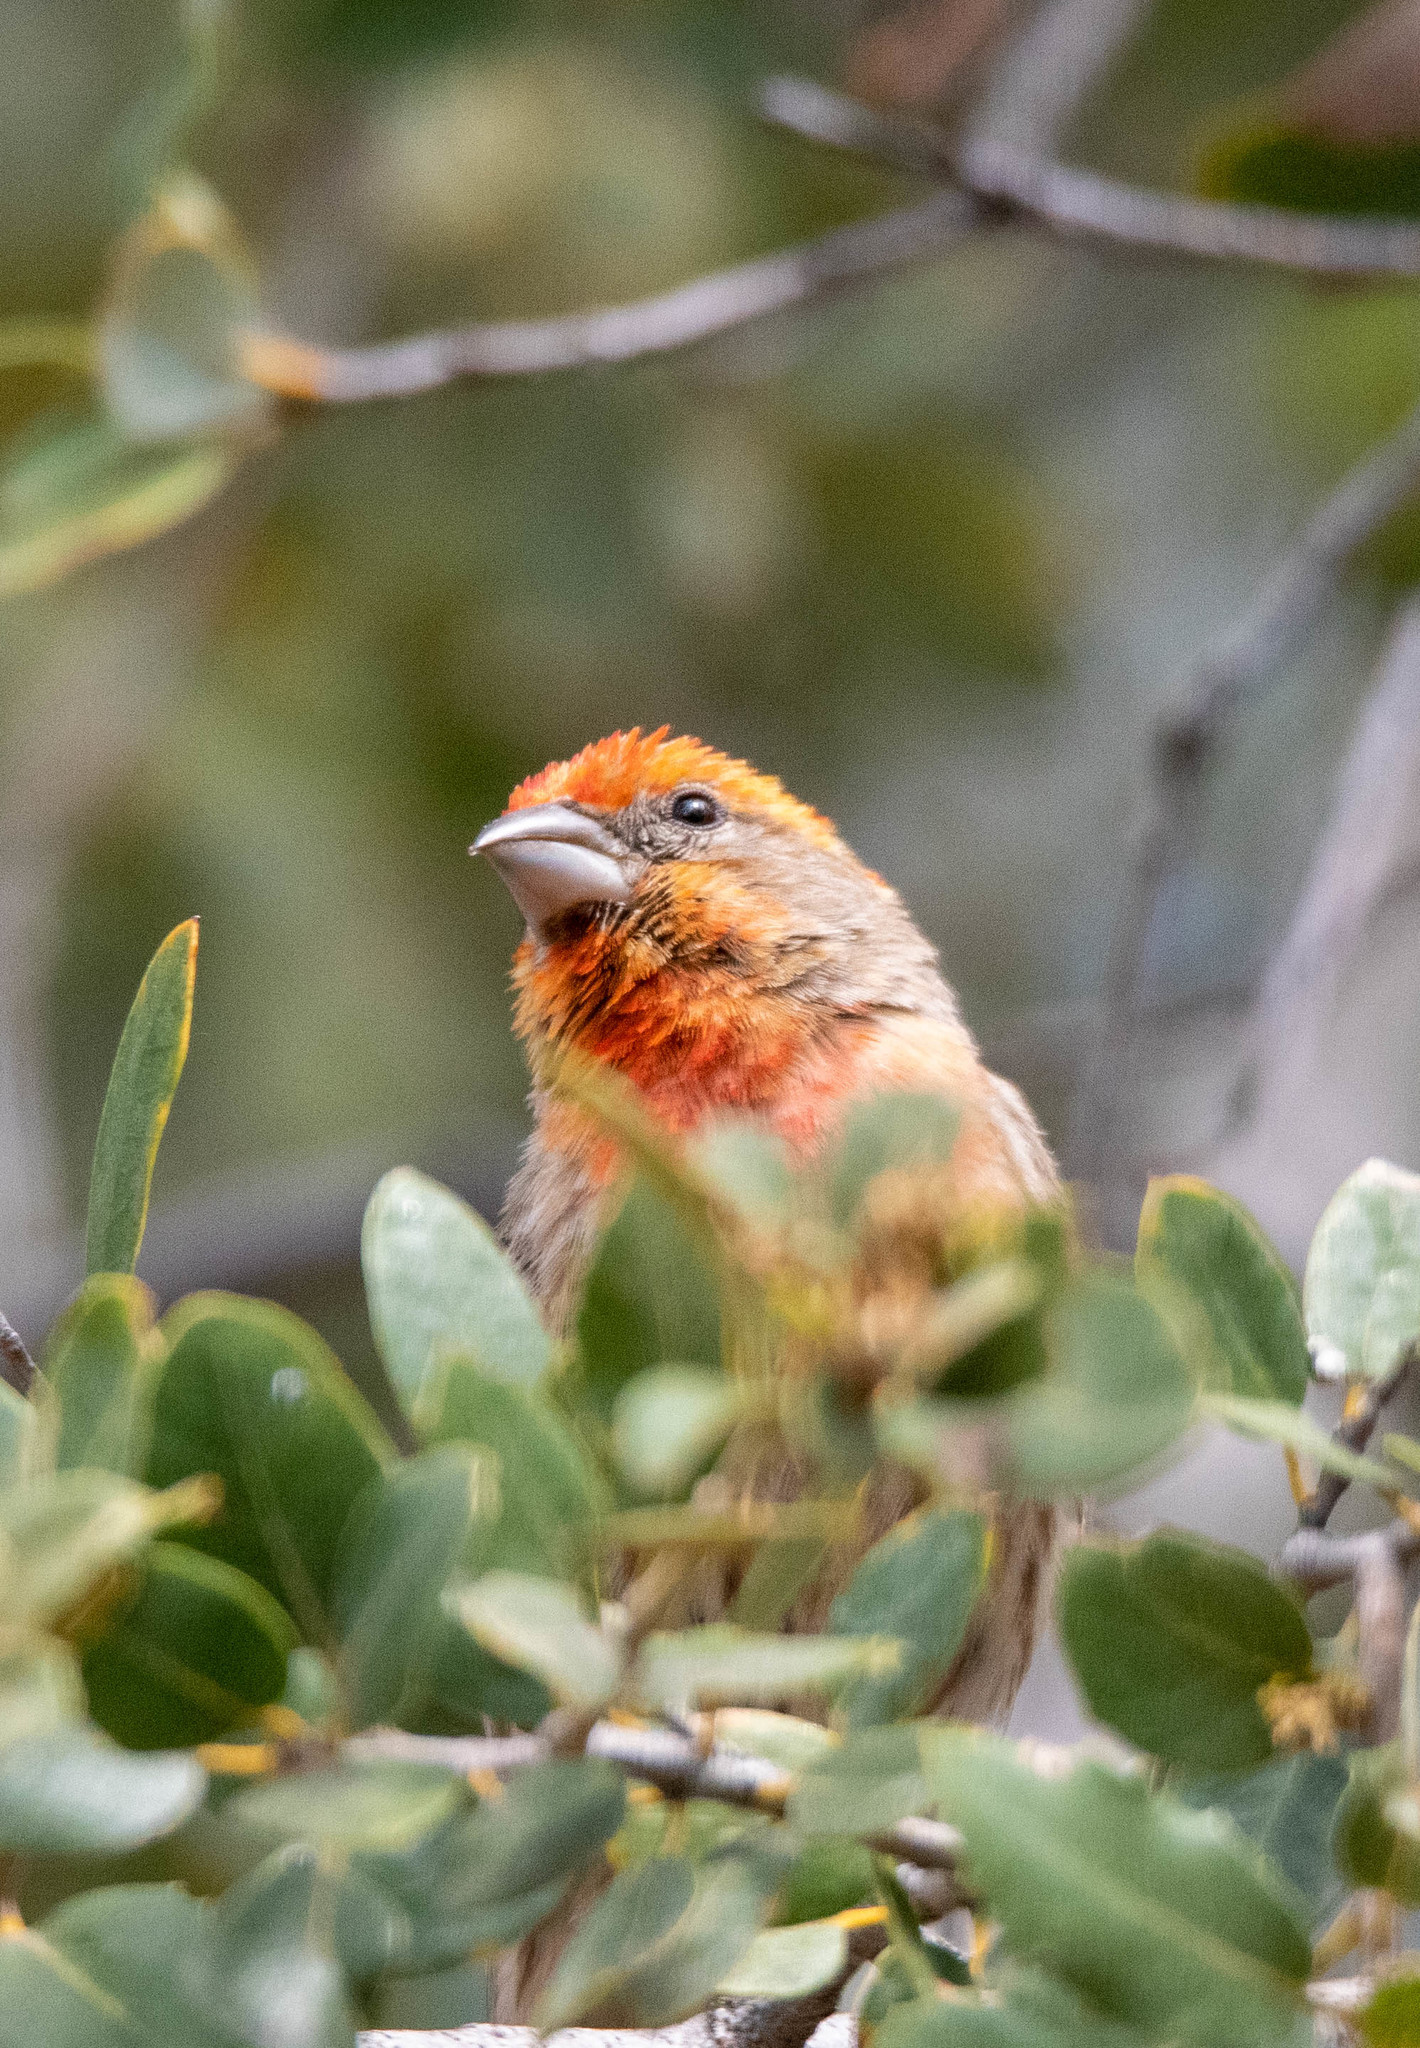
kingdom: Animalia
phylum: Chordata
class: Aves
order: Passeriformes
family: Fringillidae
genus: Haemorhous
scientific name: Haemorhous mexicanus
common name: House finch
